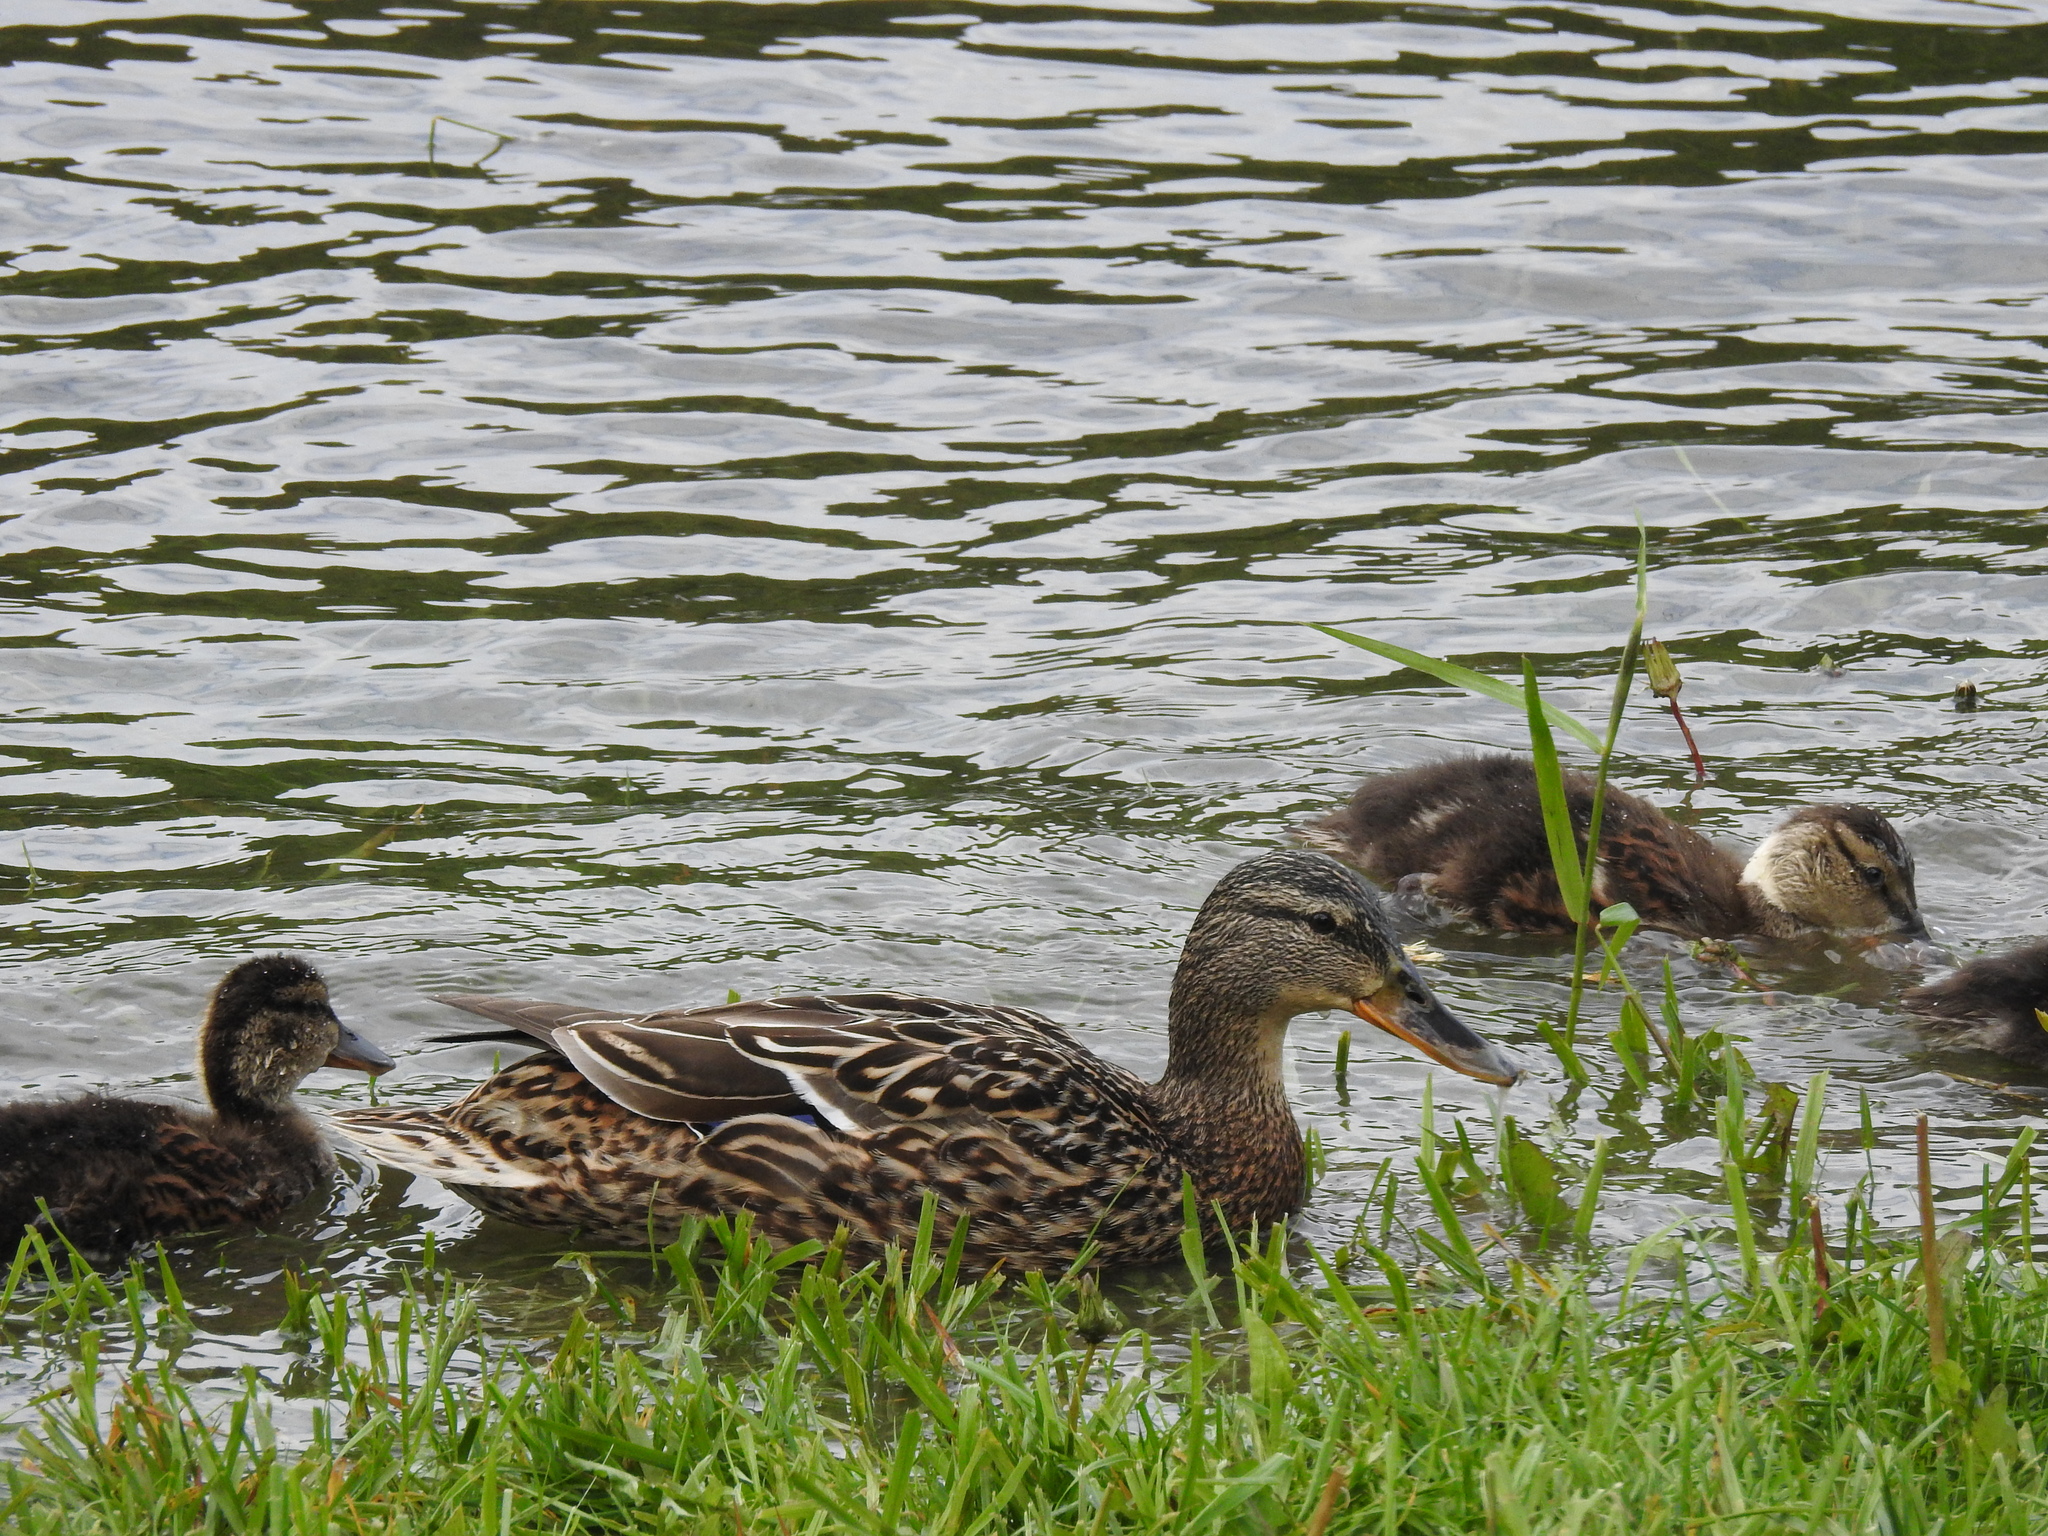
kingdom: Animalia
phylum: Chordata
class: Aves
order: Anseriformes
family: Anatidae
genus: Anas
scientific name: Anas platyrhynchos
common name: Mallard
